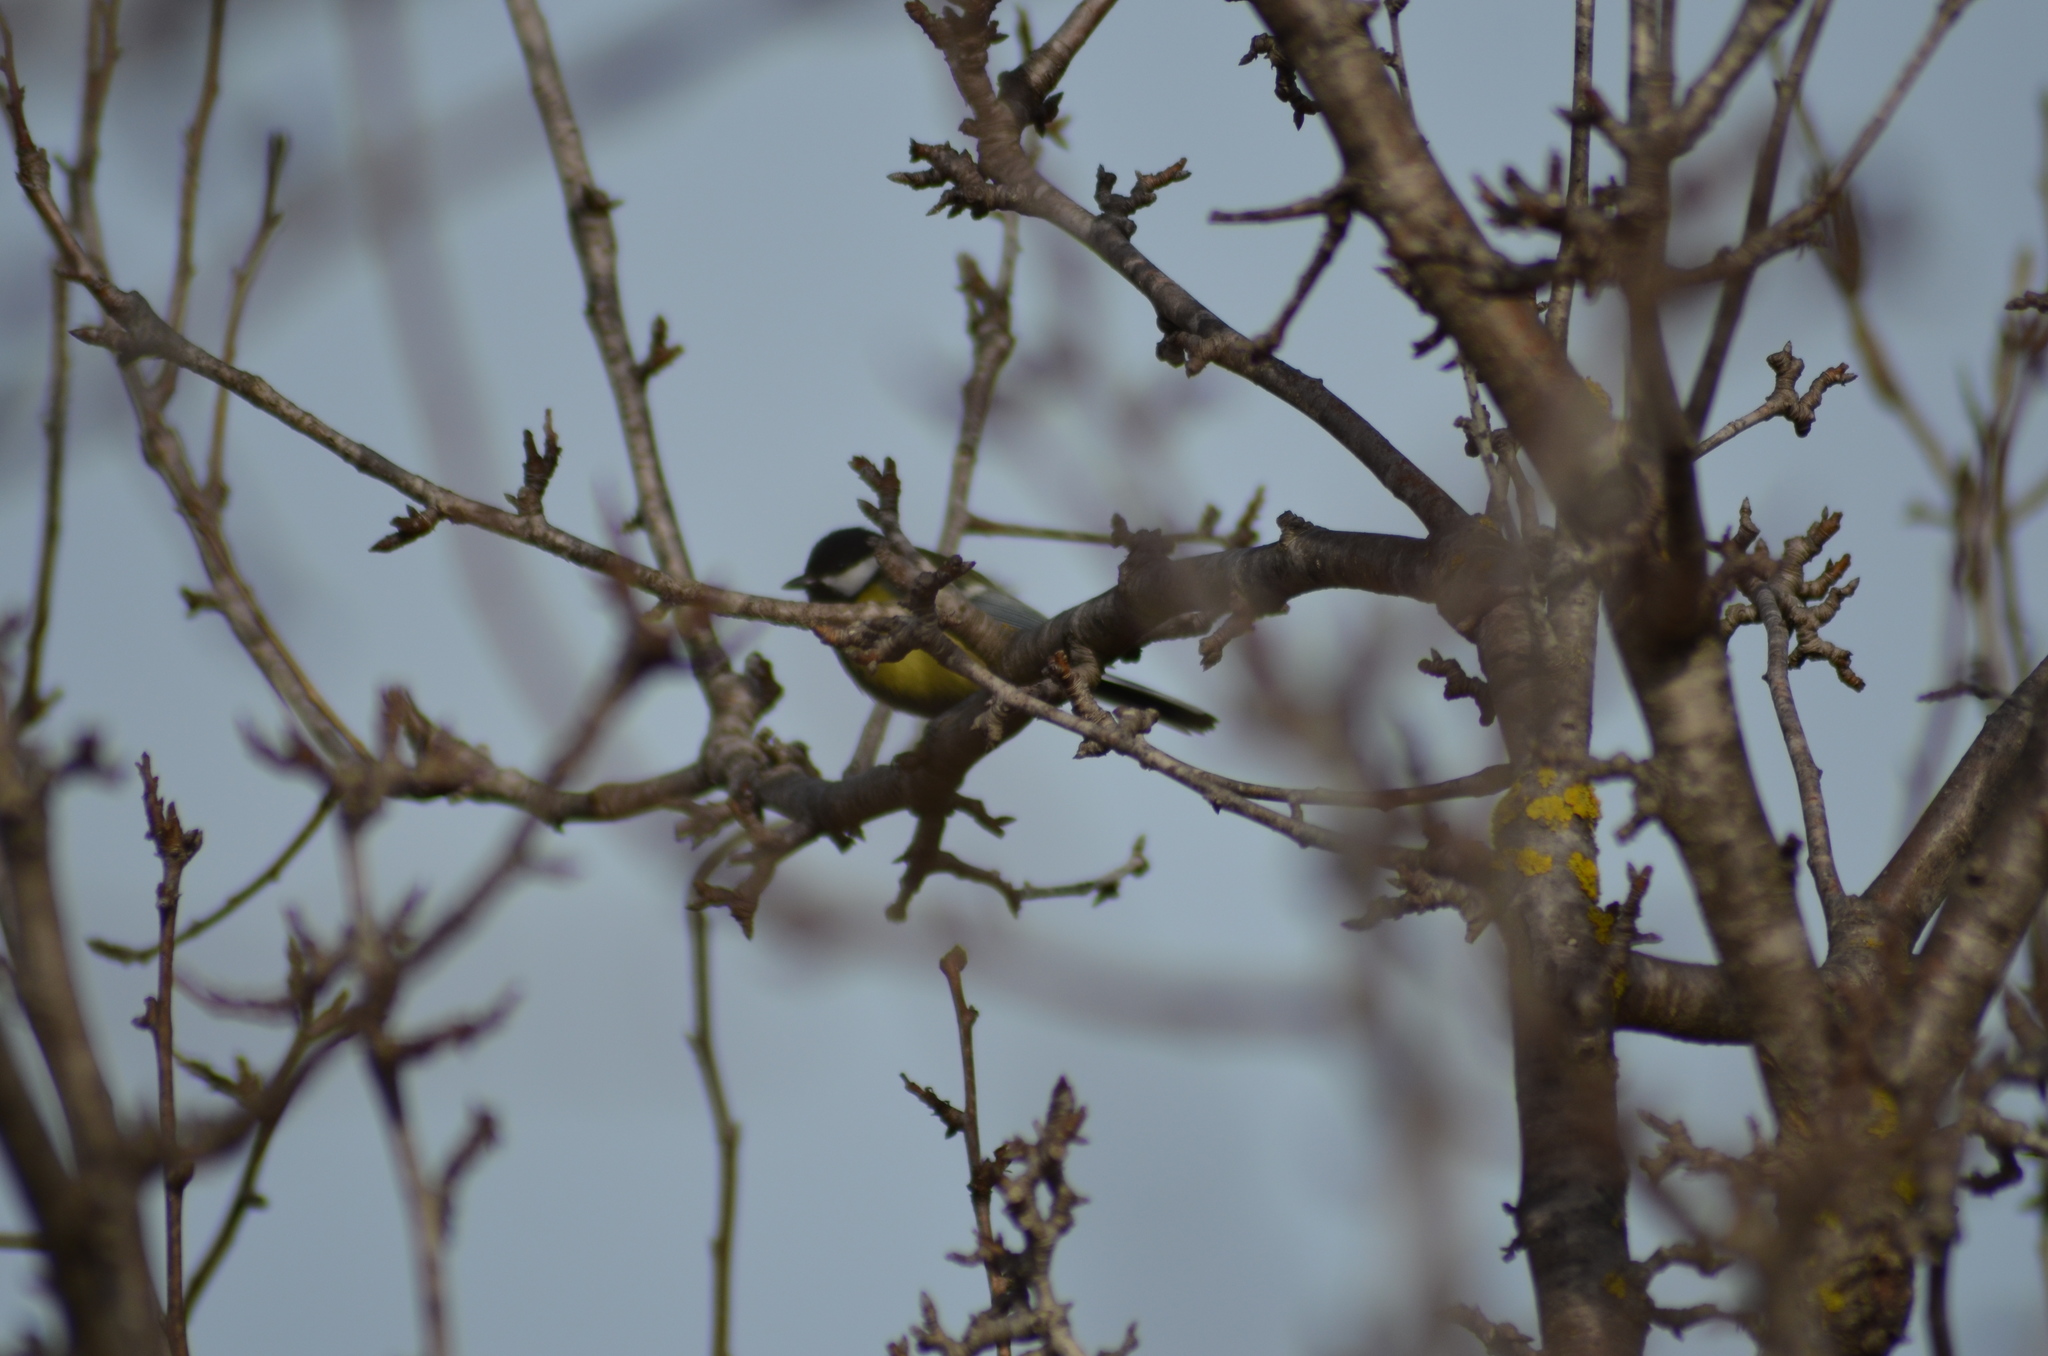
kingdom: Animalia
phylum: Chordata
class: Aves
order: Passeriformes
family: Paridae
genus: Parus
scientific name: Parus major
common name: Great tit
